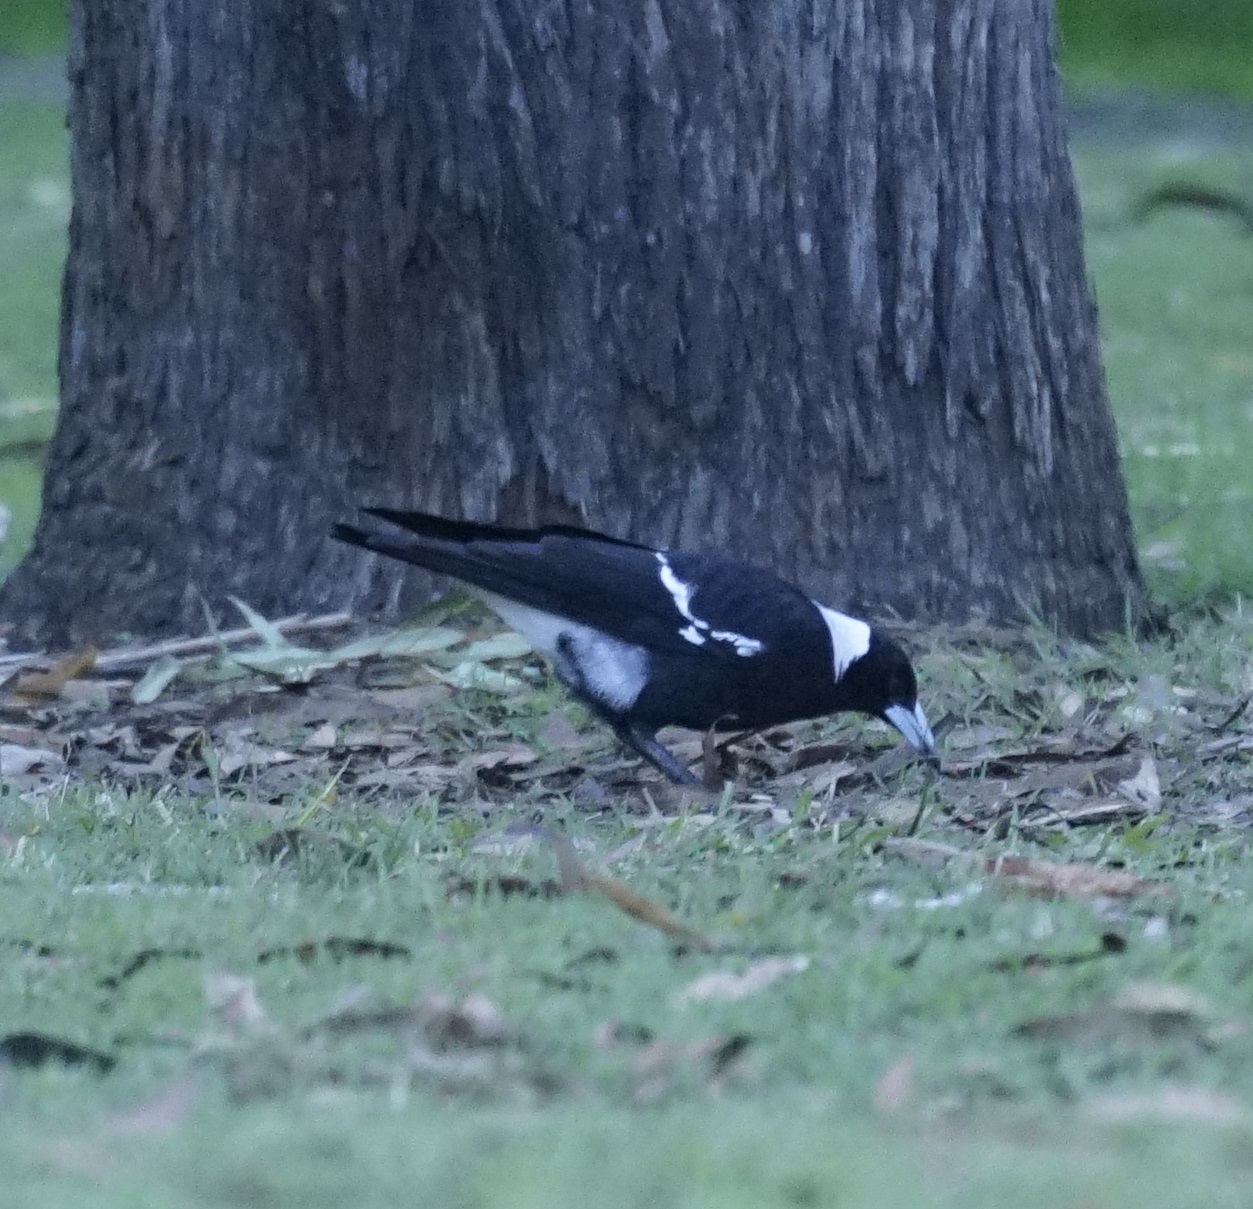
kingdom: Animalia
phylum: Chordata
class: Aves
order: Passeriformes
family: Cracticidae
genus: Gymnorhina
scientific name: Gymnorhina tibicen
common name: Australian magpie
